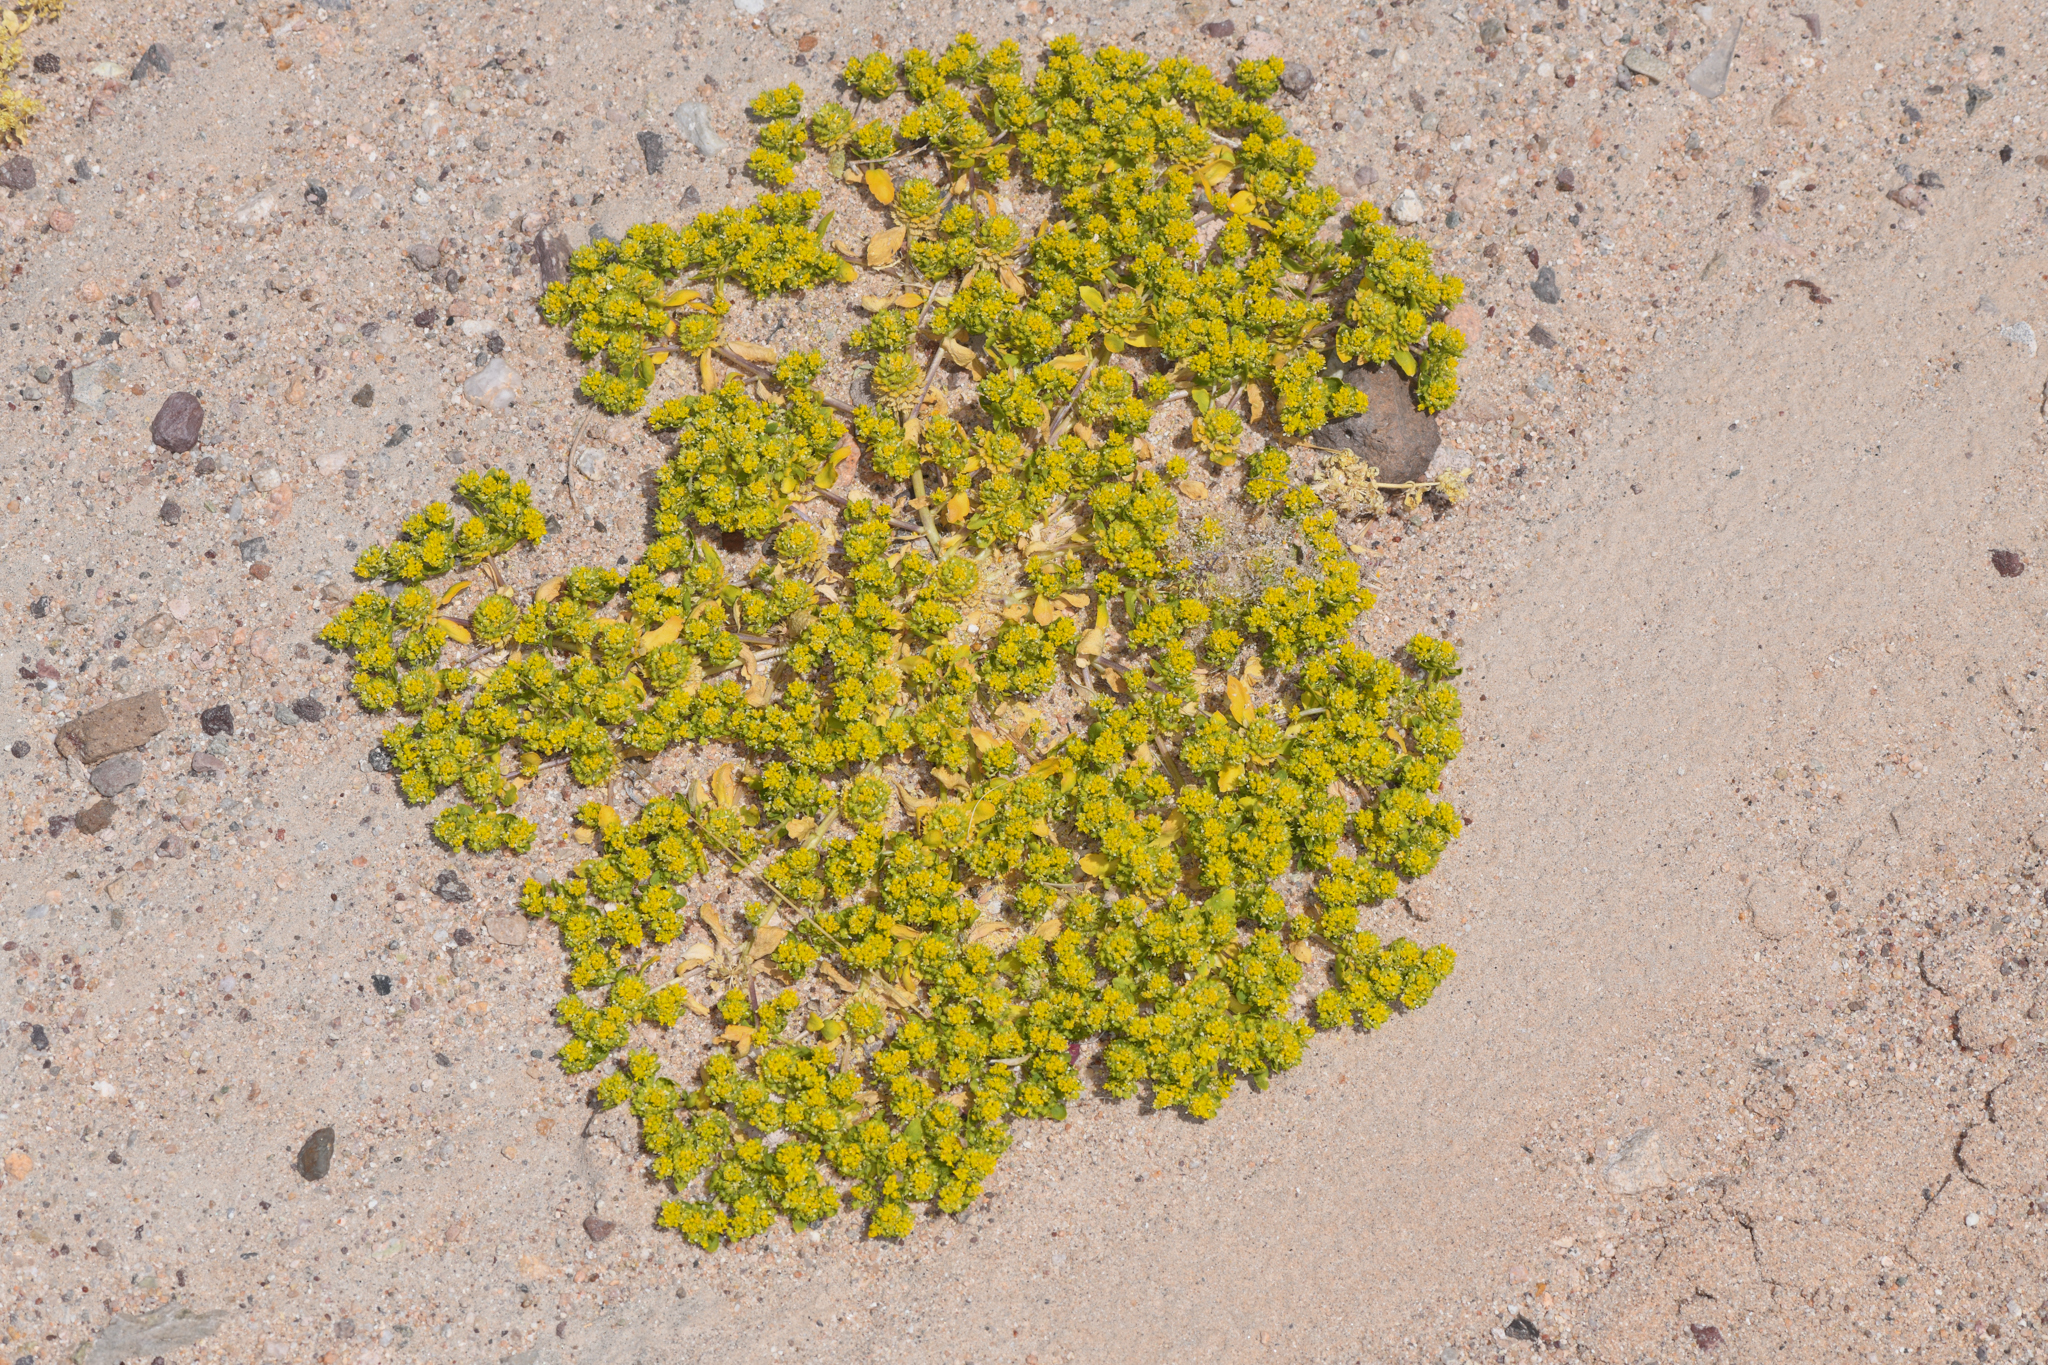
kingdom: Plantae
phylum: Tracheophyta
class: Magnoliopsida
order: Brassicales
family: Brassicaceae
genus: Lepidium
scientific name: Lepidium flavum
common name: Yellow pepperwort
